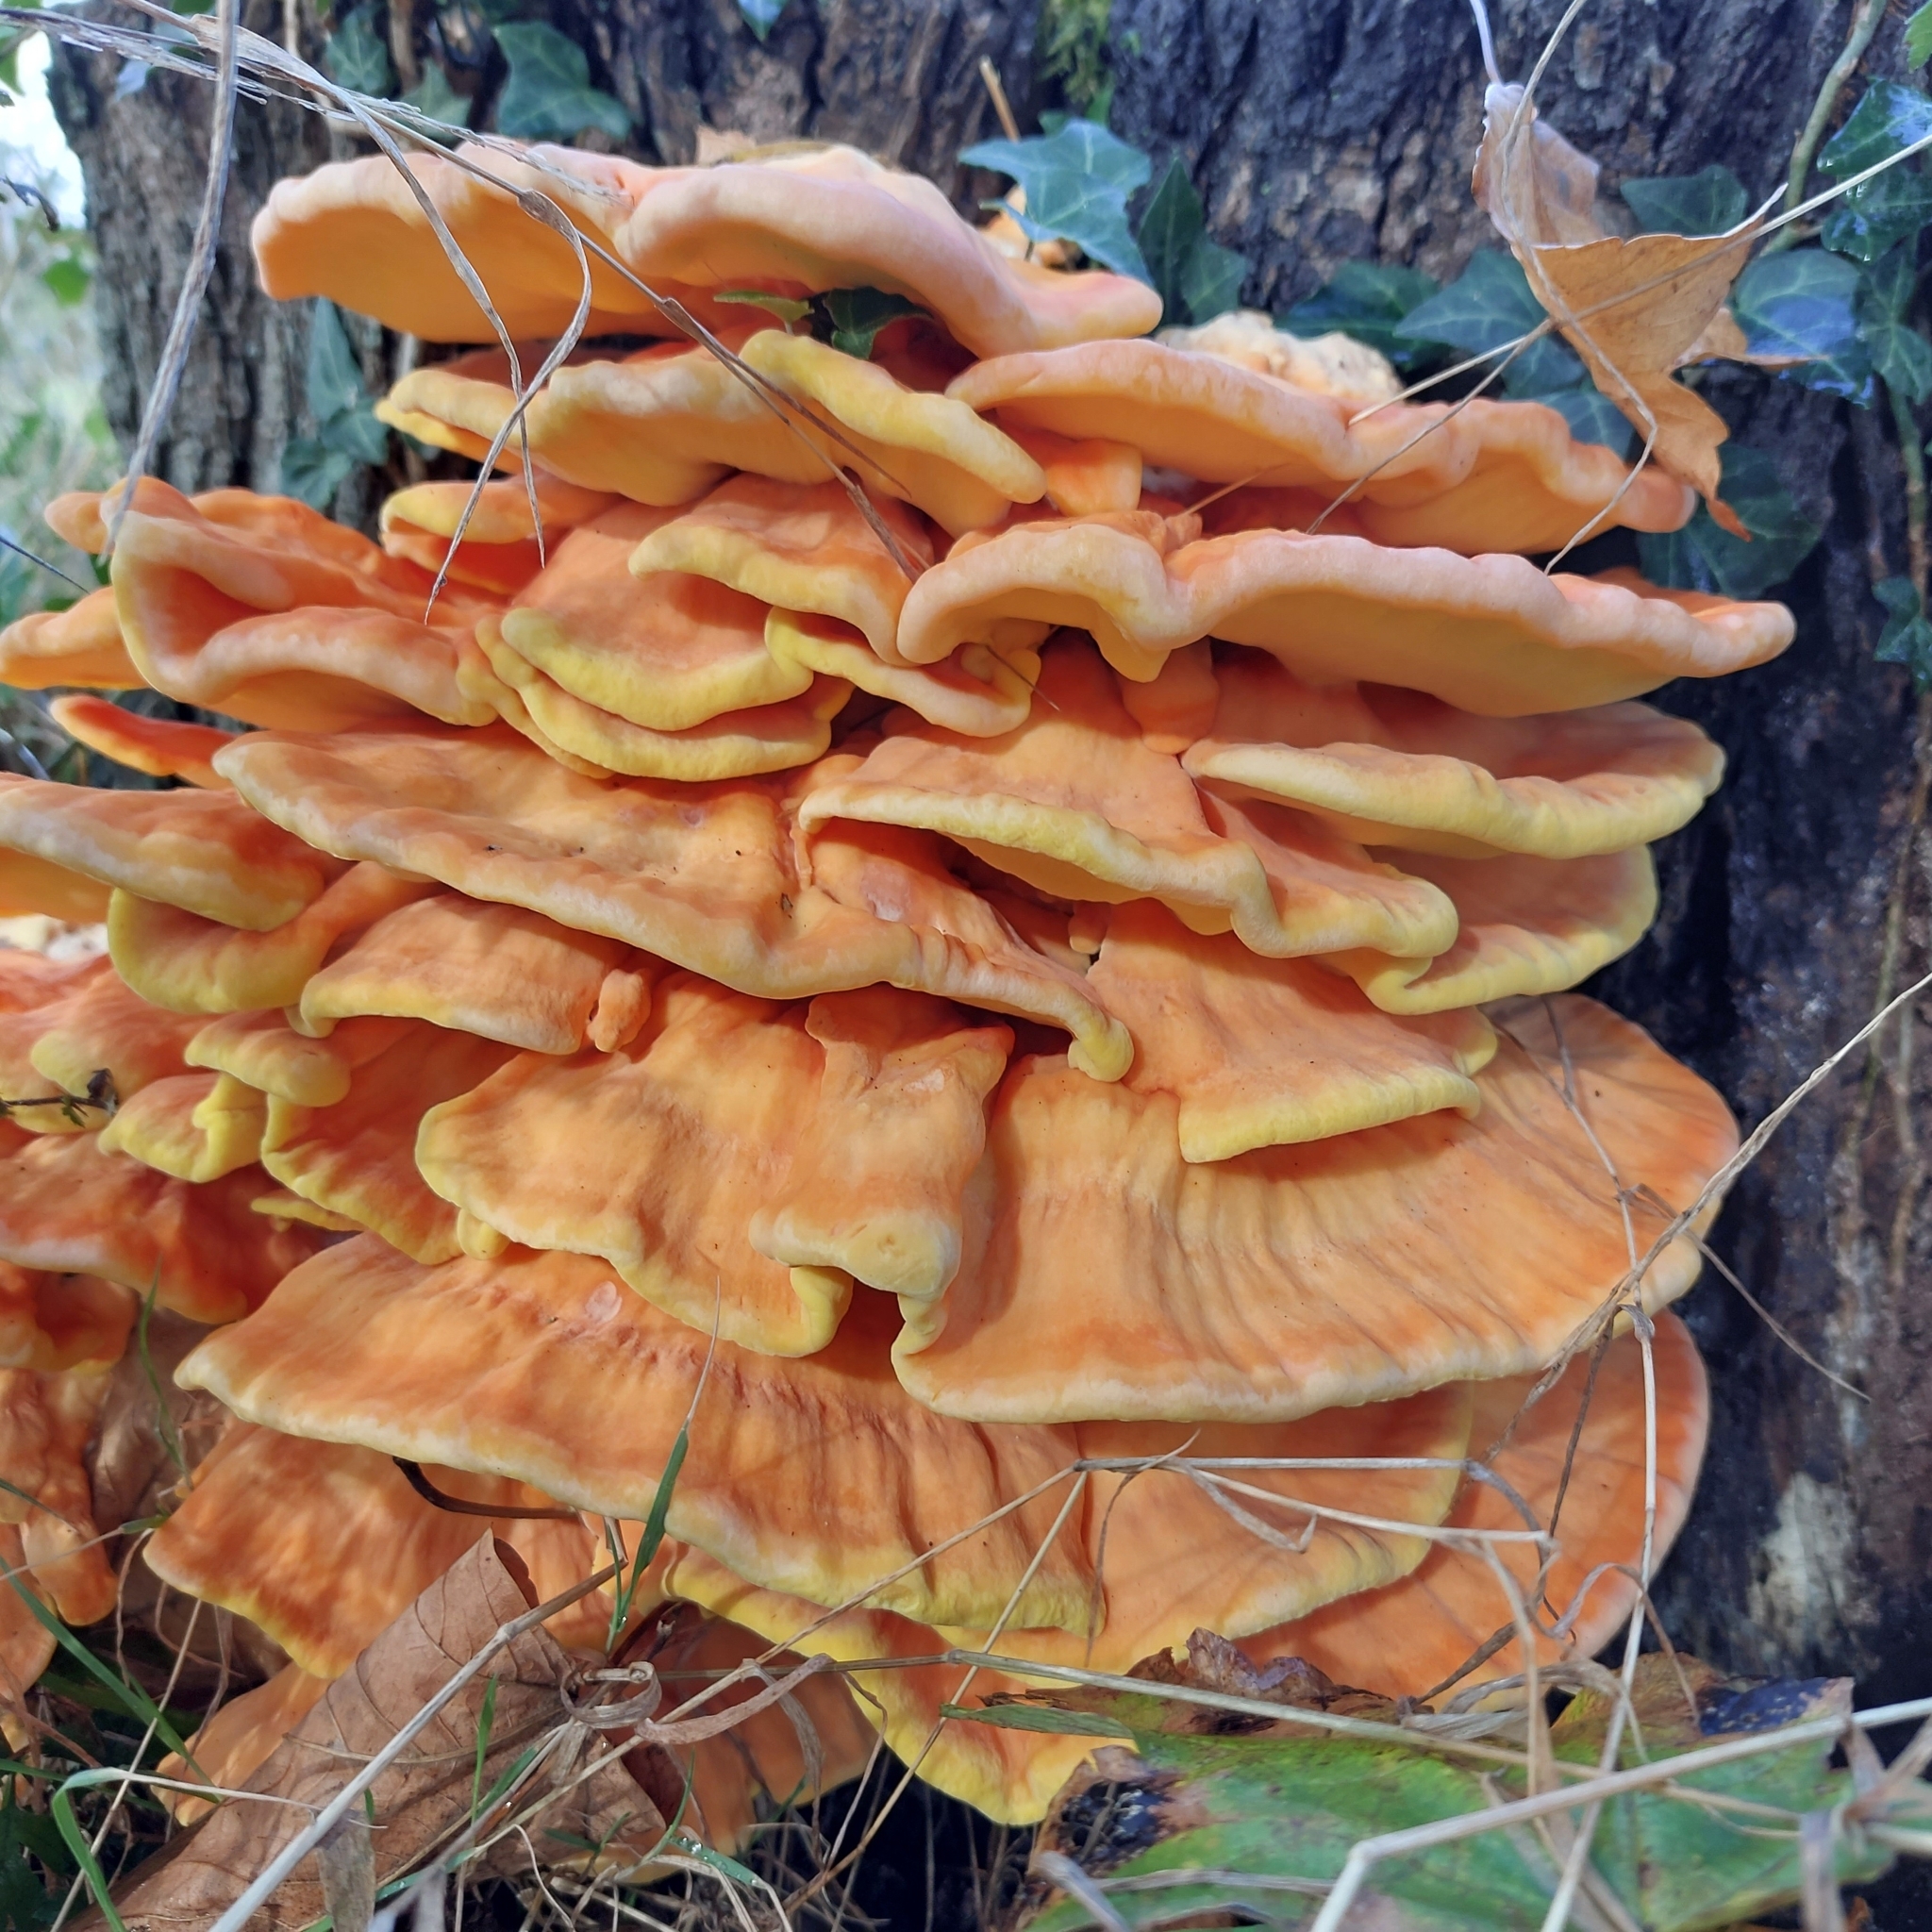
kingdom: Fungi
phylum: Basidiomycota
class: Agaricomycetes
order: Polyporales
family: Laetiporaceae
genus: Laetiporus
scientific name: Laetiporus sulphureus
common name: Chicken of the woods
